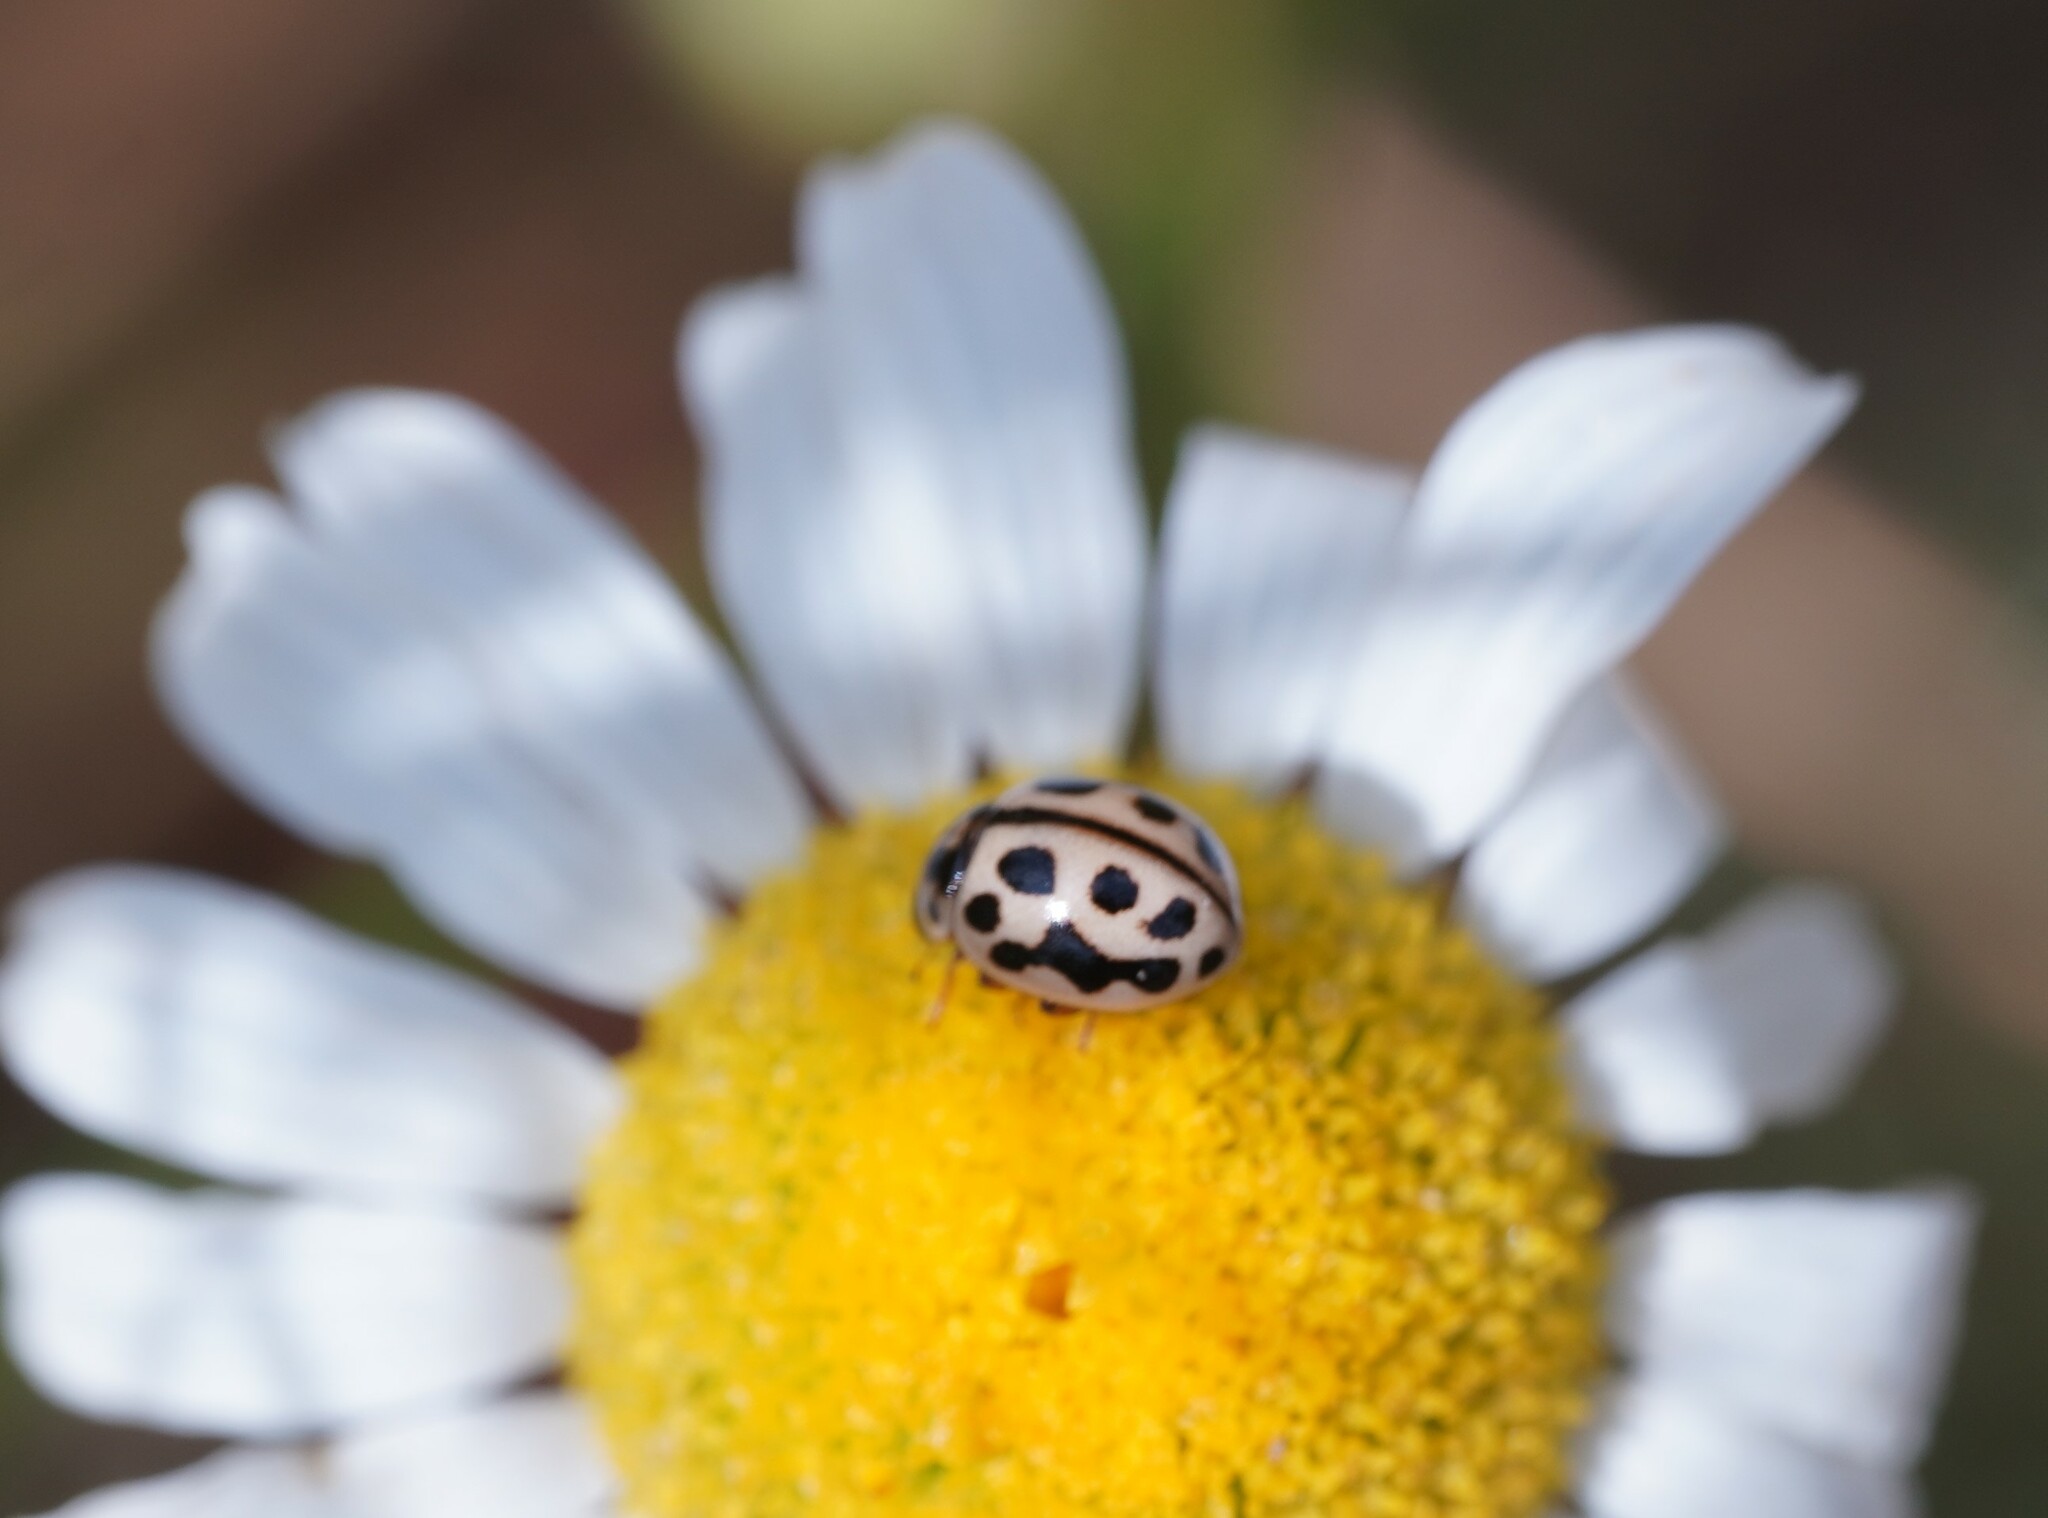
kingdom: Animalia
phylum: Arthropoda
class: Insecta
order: Coleoptera
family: Coccinellidae
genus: Tytthaspis
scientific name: Tytthaspis sedecimpunctata
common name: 16-spot ladybird
